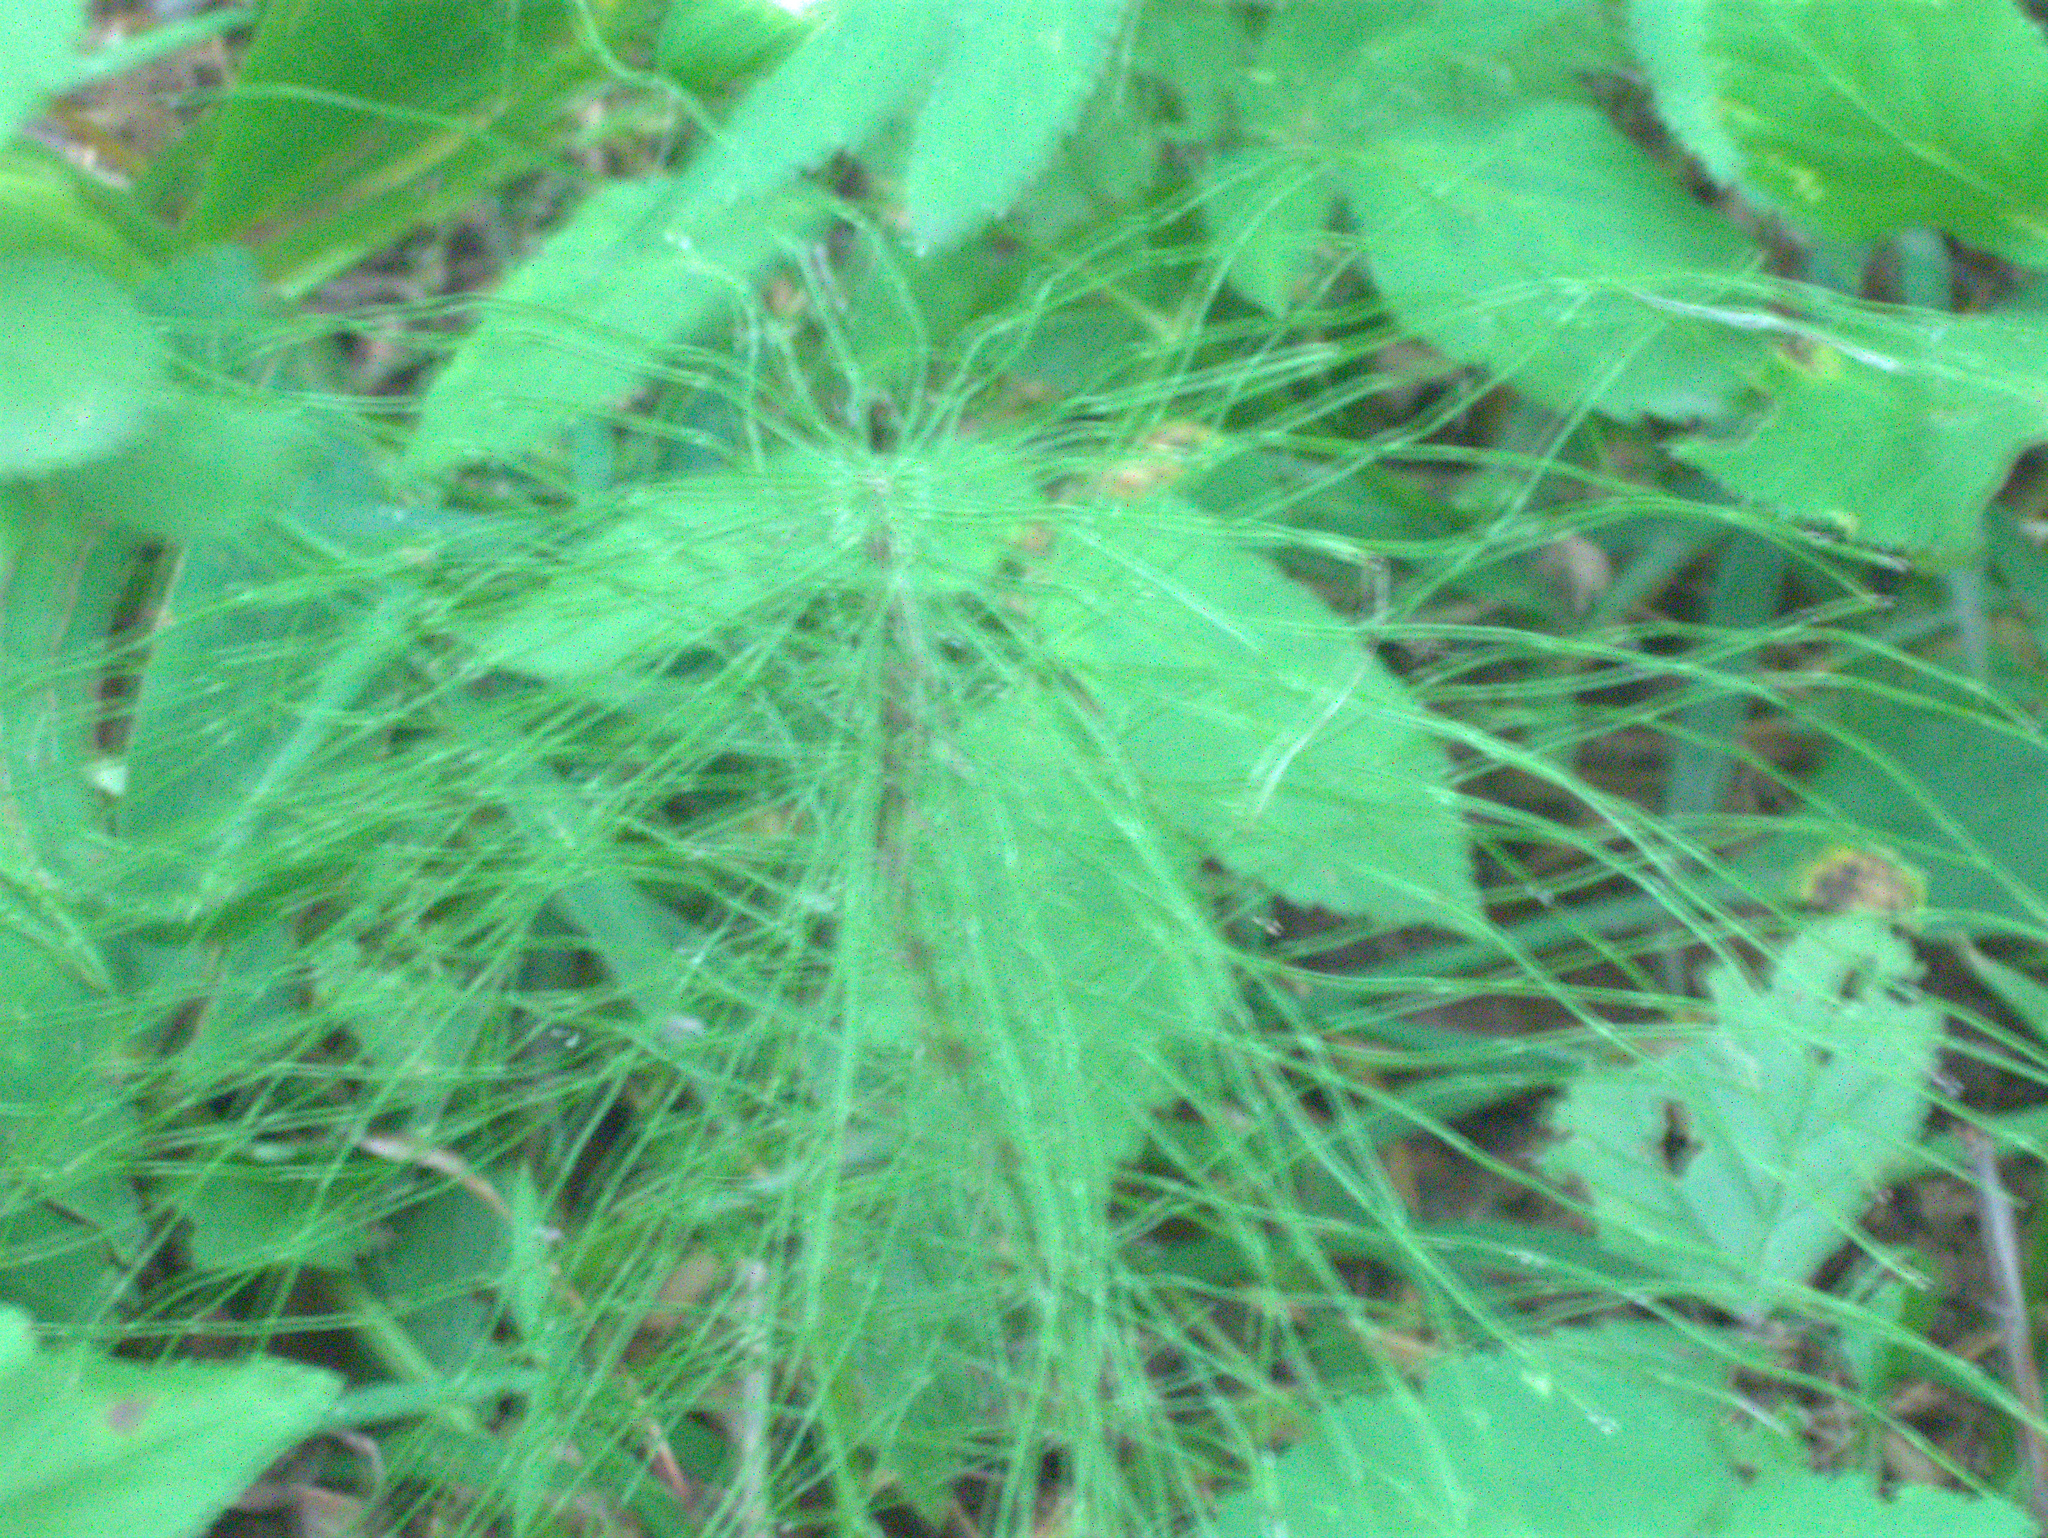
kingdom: Plantae
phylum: Tracheophyta
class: Polypodiopsida
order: Equisetales
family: Equisetaceae
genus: Equisetum
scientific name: Equisetum pratense
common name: Meadow horsetail
